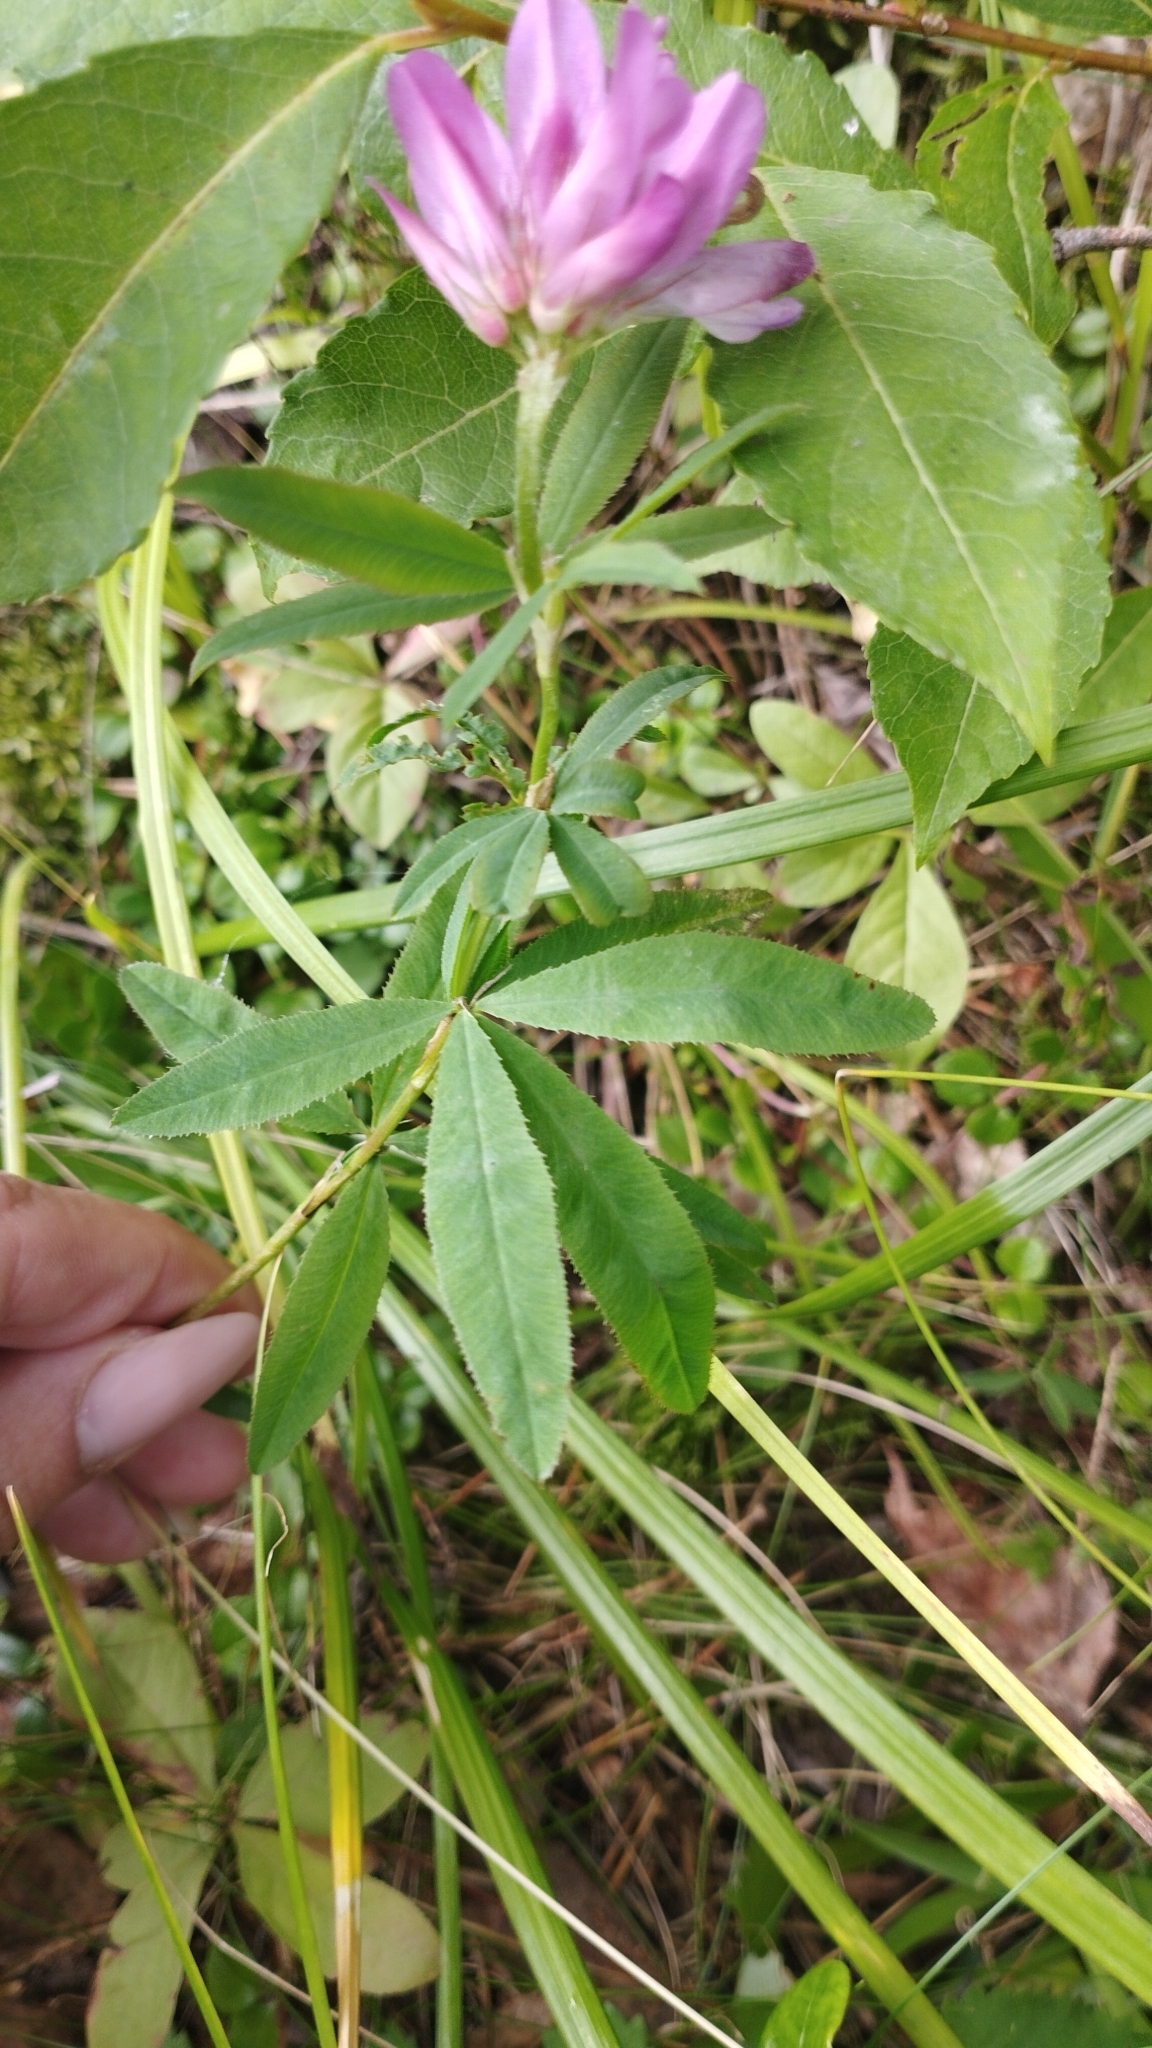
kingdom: Plantae
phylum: Tracheophyta
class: Magnoliopsida
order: Fabales
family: Fabaceae
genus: Trifolium
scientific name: Trifolium lupinaster
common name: Lupine clover
